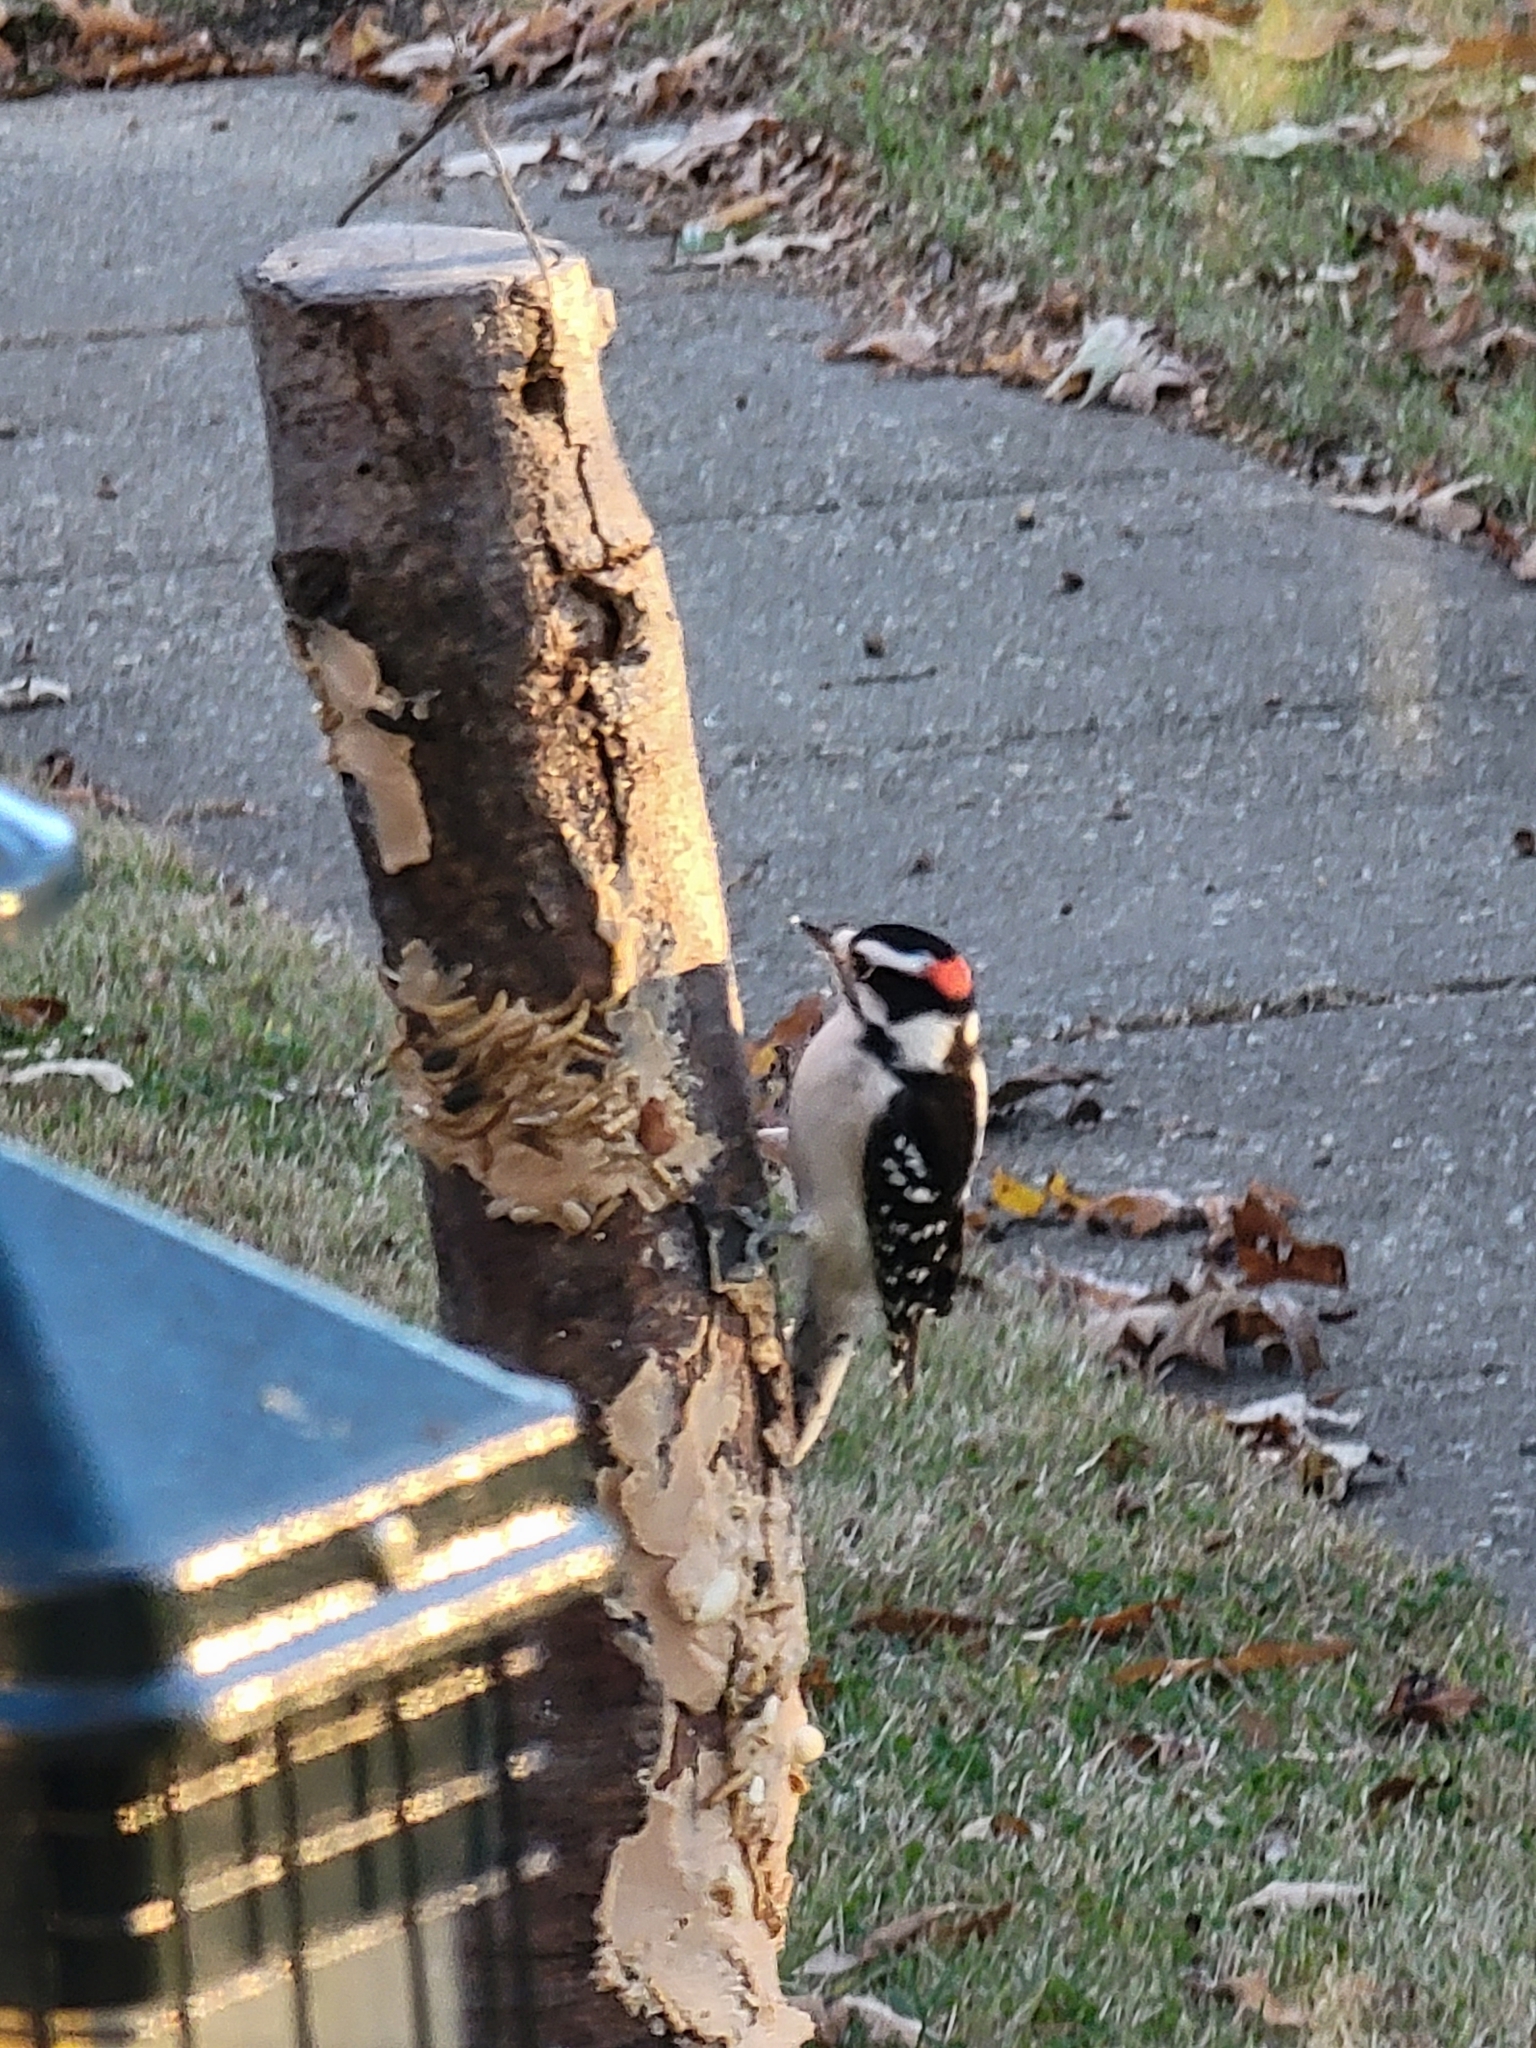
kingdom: Animalia
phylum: Chordata
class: Aves
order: Piciformes
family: Picidae
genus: Dryobates
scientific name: Dryobates pubescens
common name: Downy woodpecker
